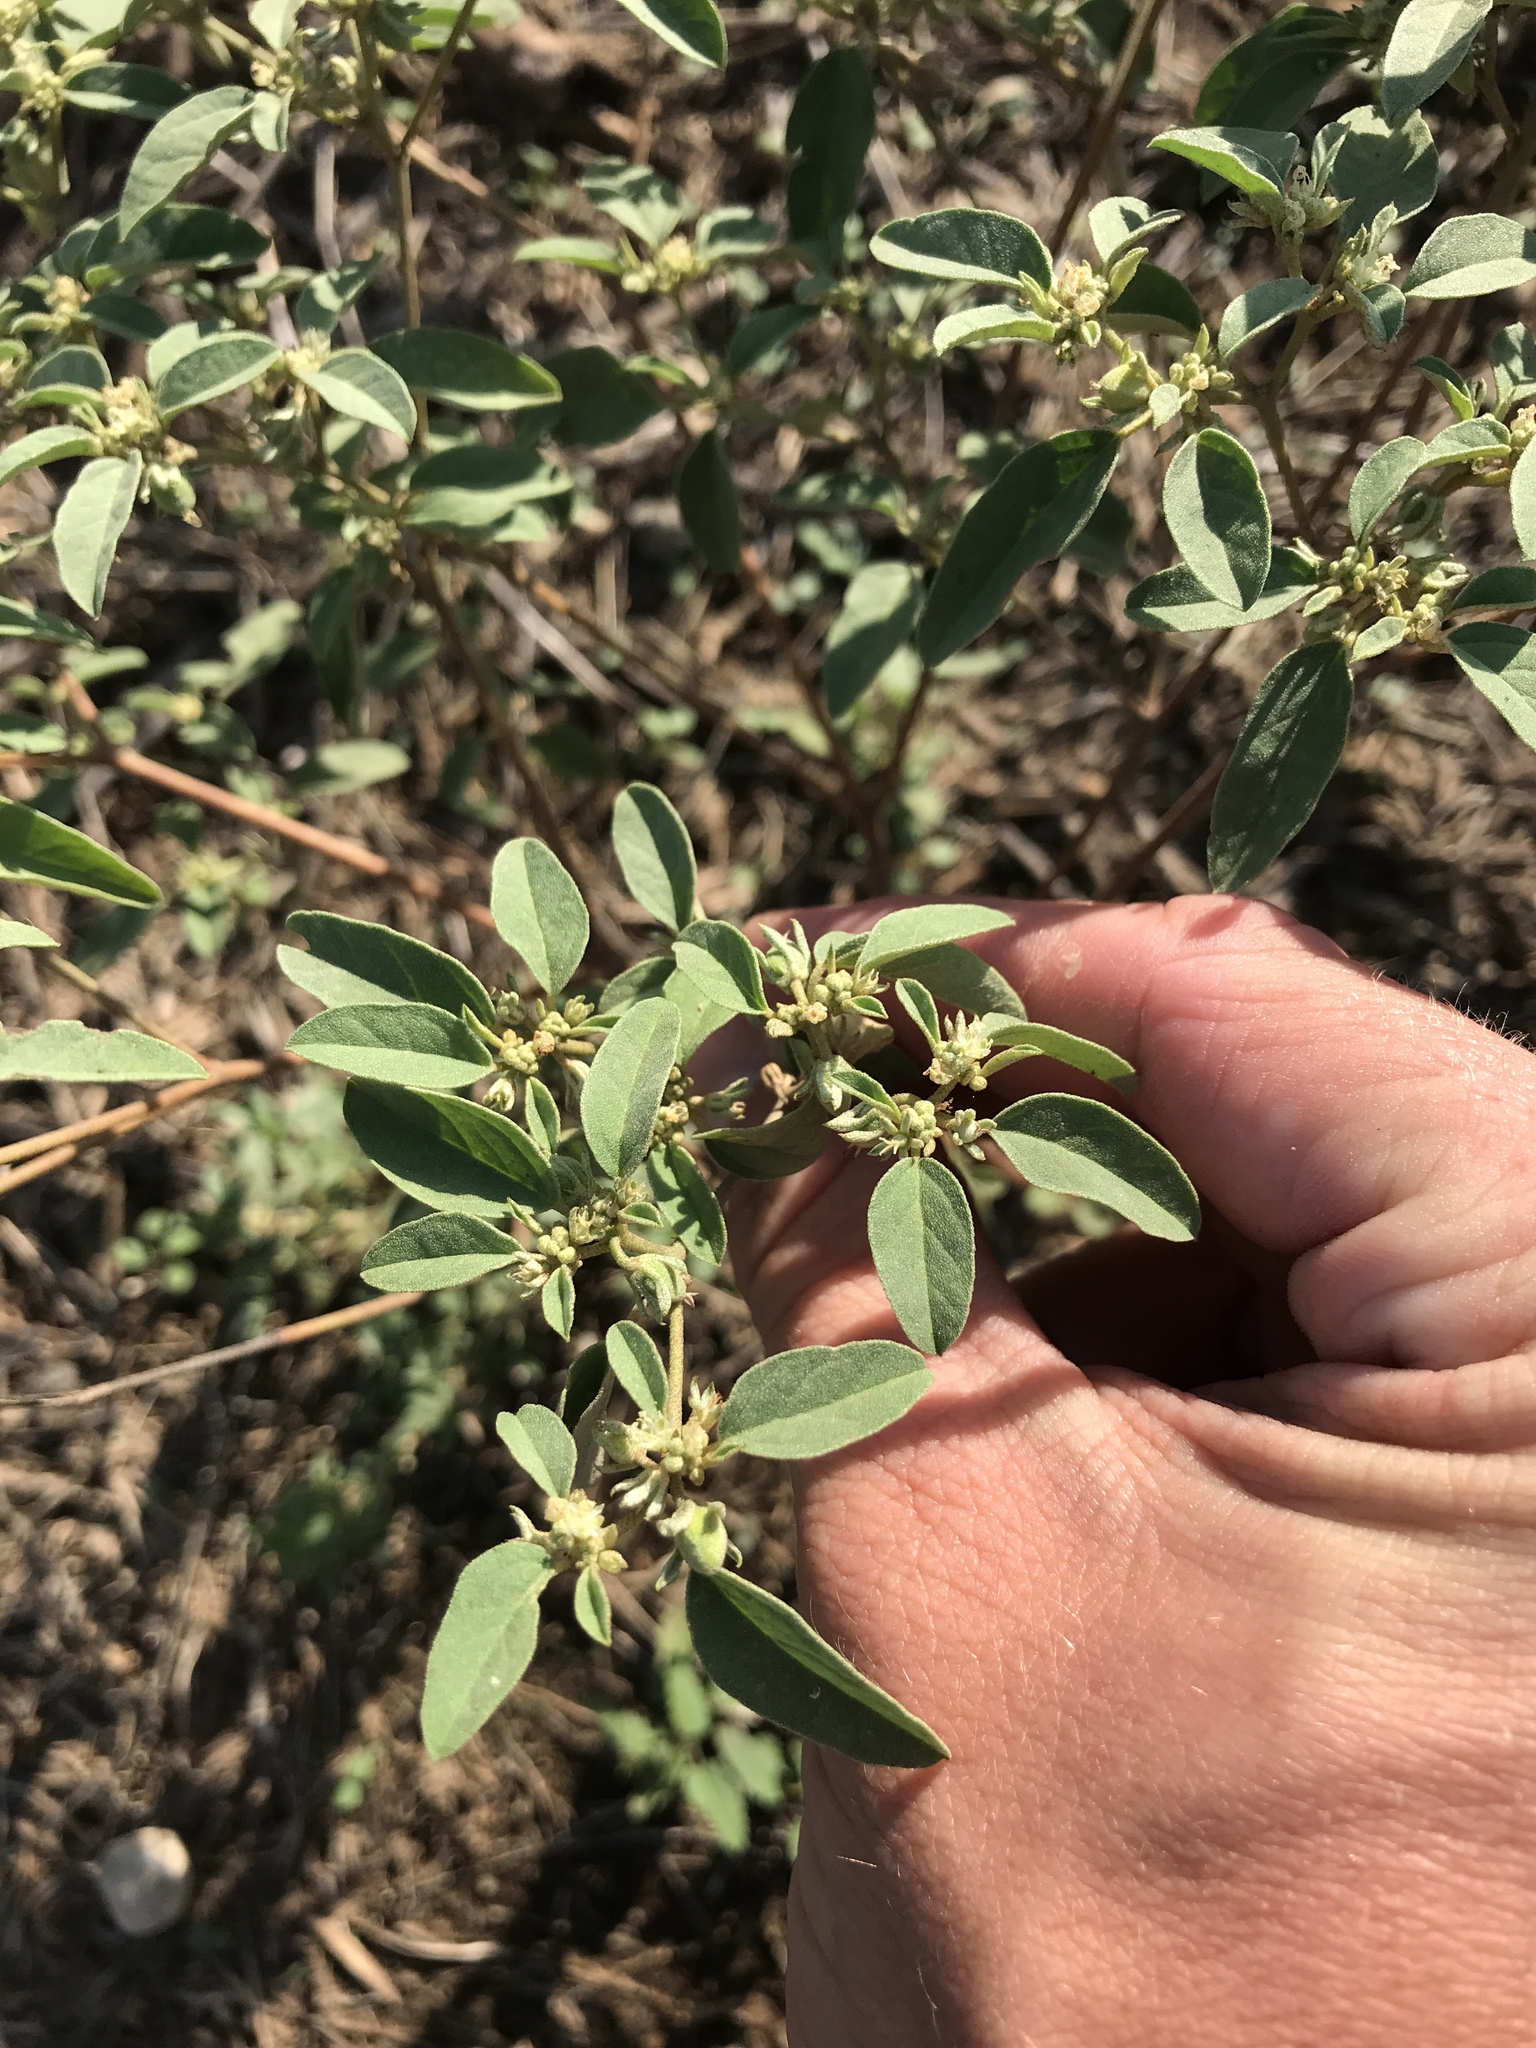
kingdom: Plantae
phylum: Tracheophyta
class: Magnoliopsida
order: Malpighiales
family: Euphorbiaceae
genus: Croton
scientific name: Croton monanthogynus
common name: One-seed croton
